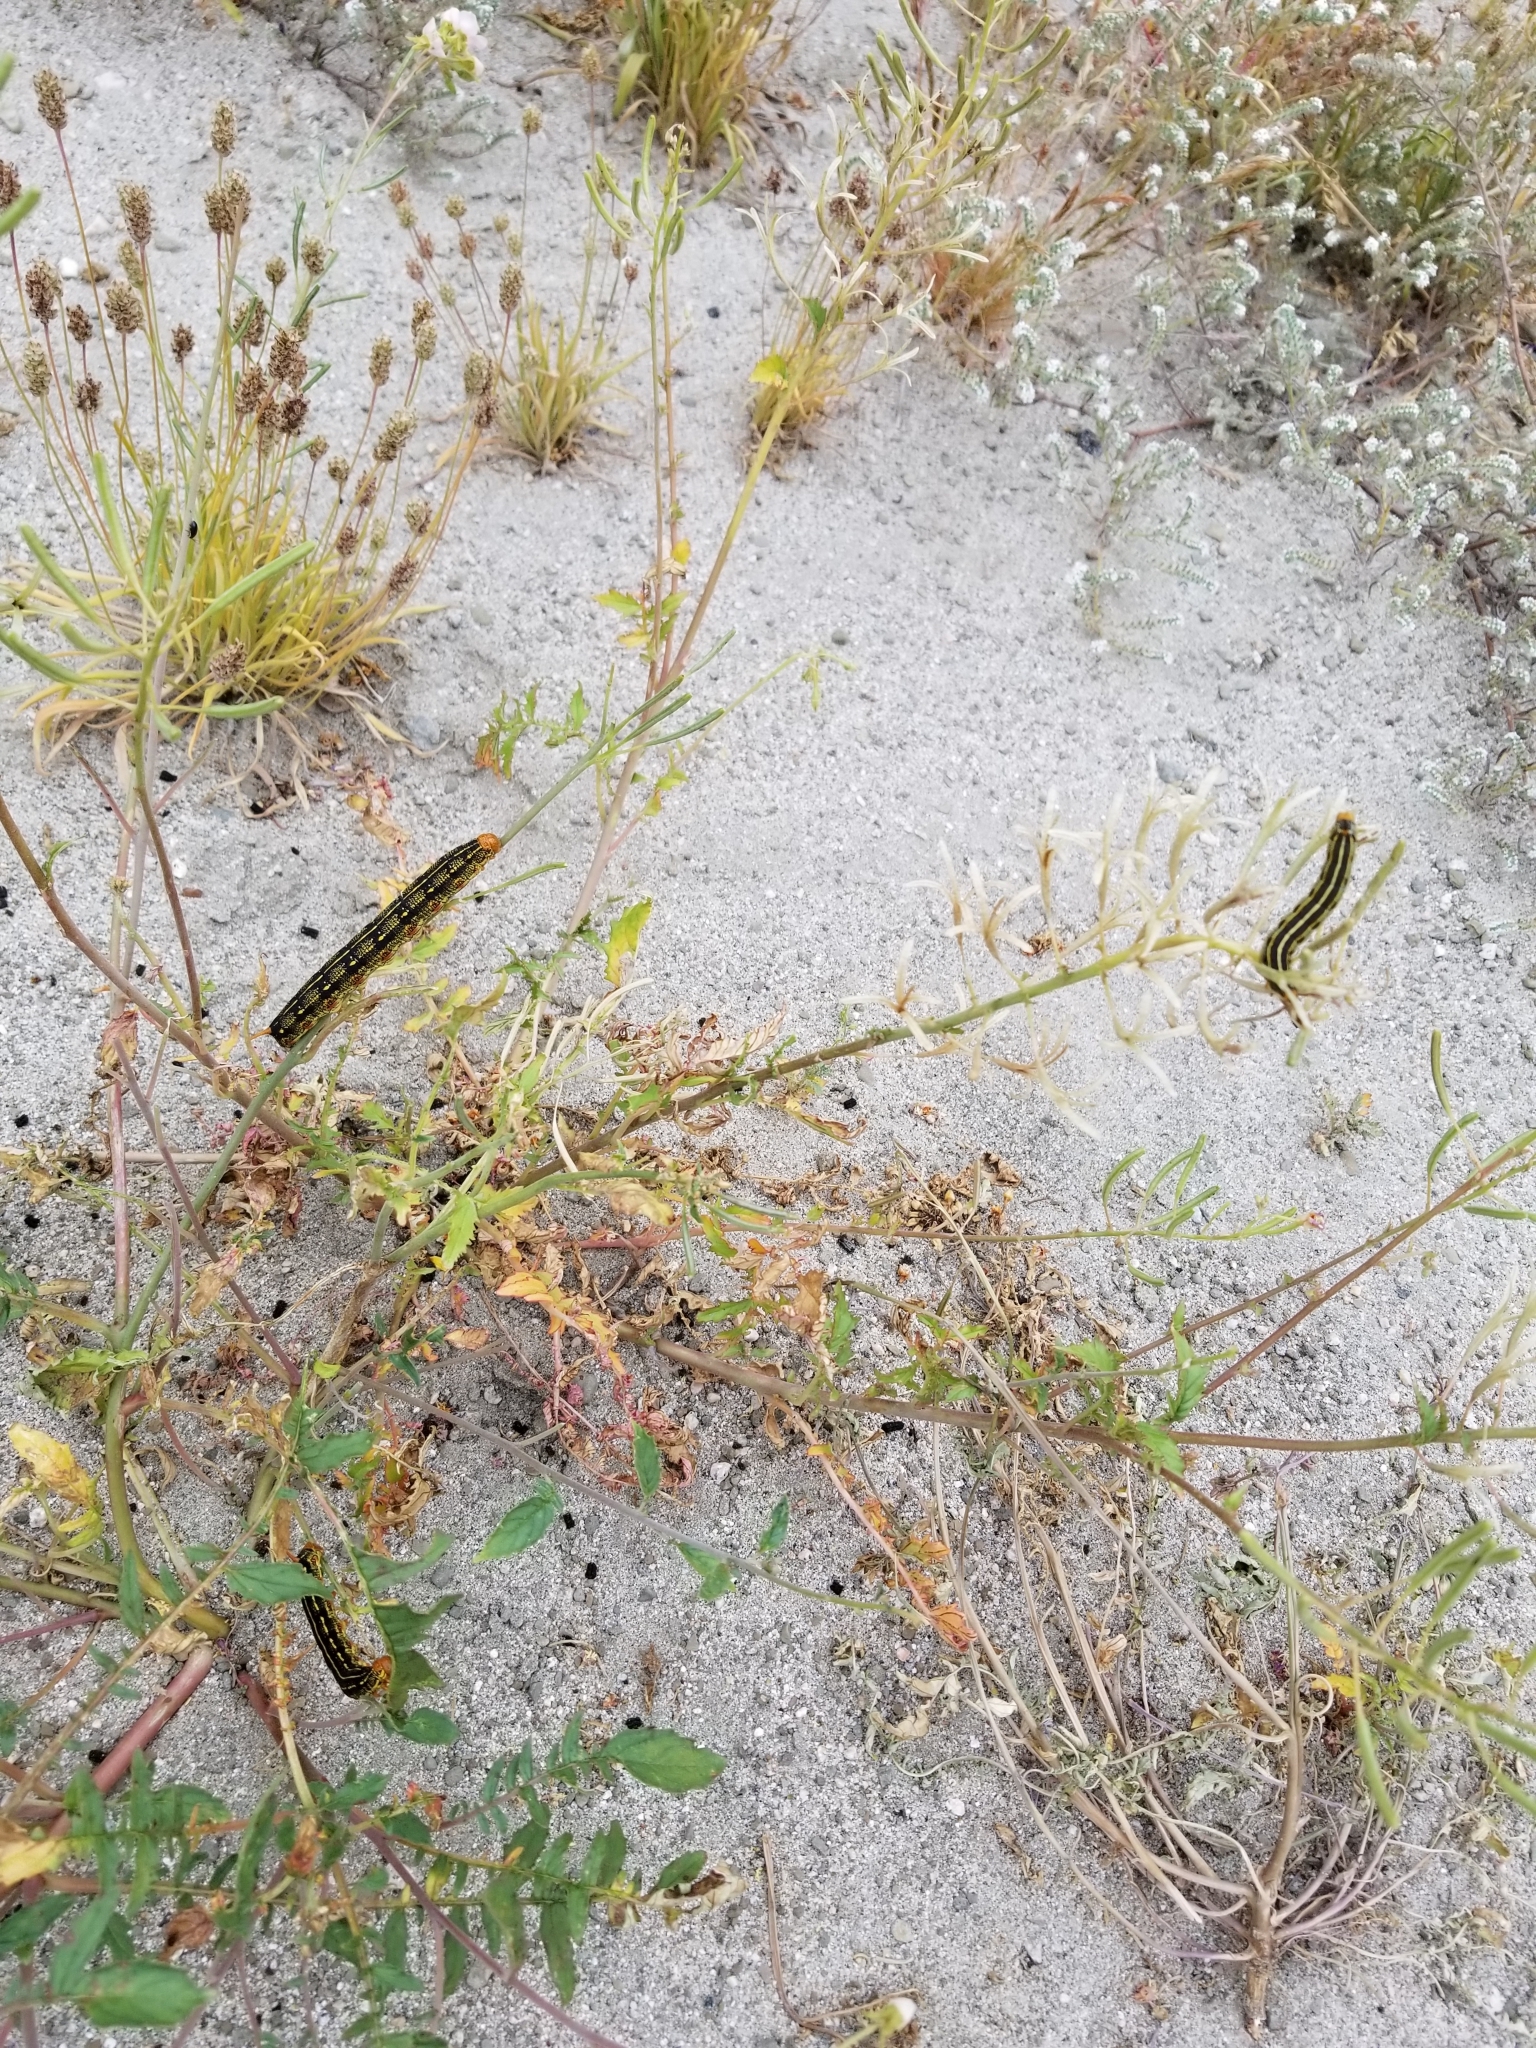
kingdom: Animalia
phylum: Arthropoda
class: Insecta
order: Lepidoptera
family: Sphingidae
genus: Hyles
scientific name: Hyles lineata
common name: White-lined sphinx
